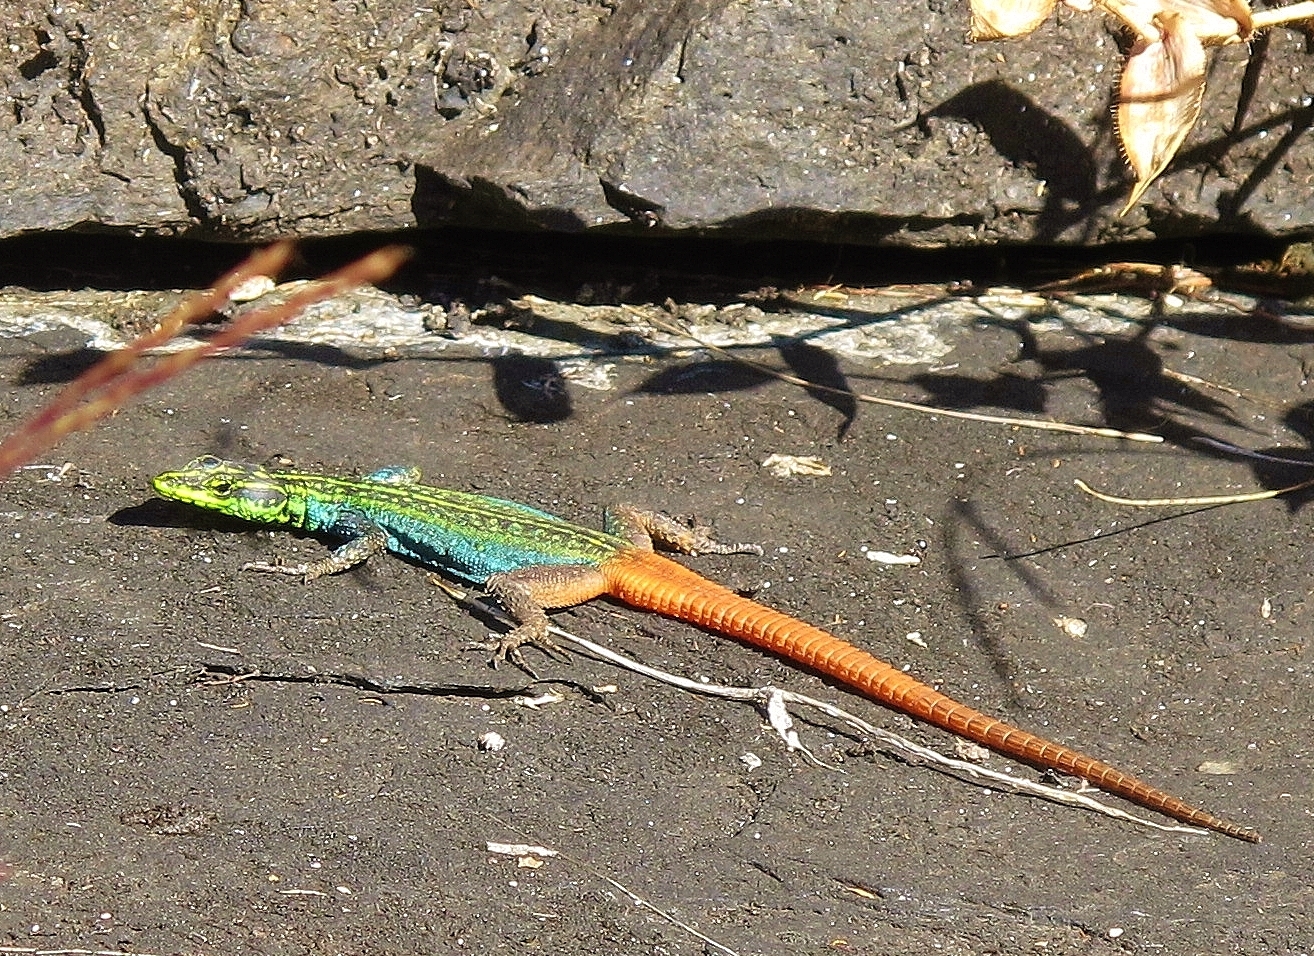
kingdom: Animalia
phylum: Chordata
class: Squamata
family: Cordylidae
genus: Platysaurus
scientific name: Platysaurus orientalis
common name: Sekhukune flat lizard
